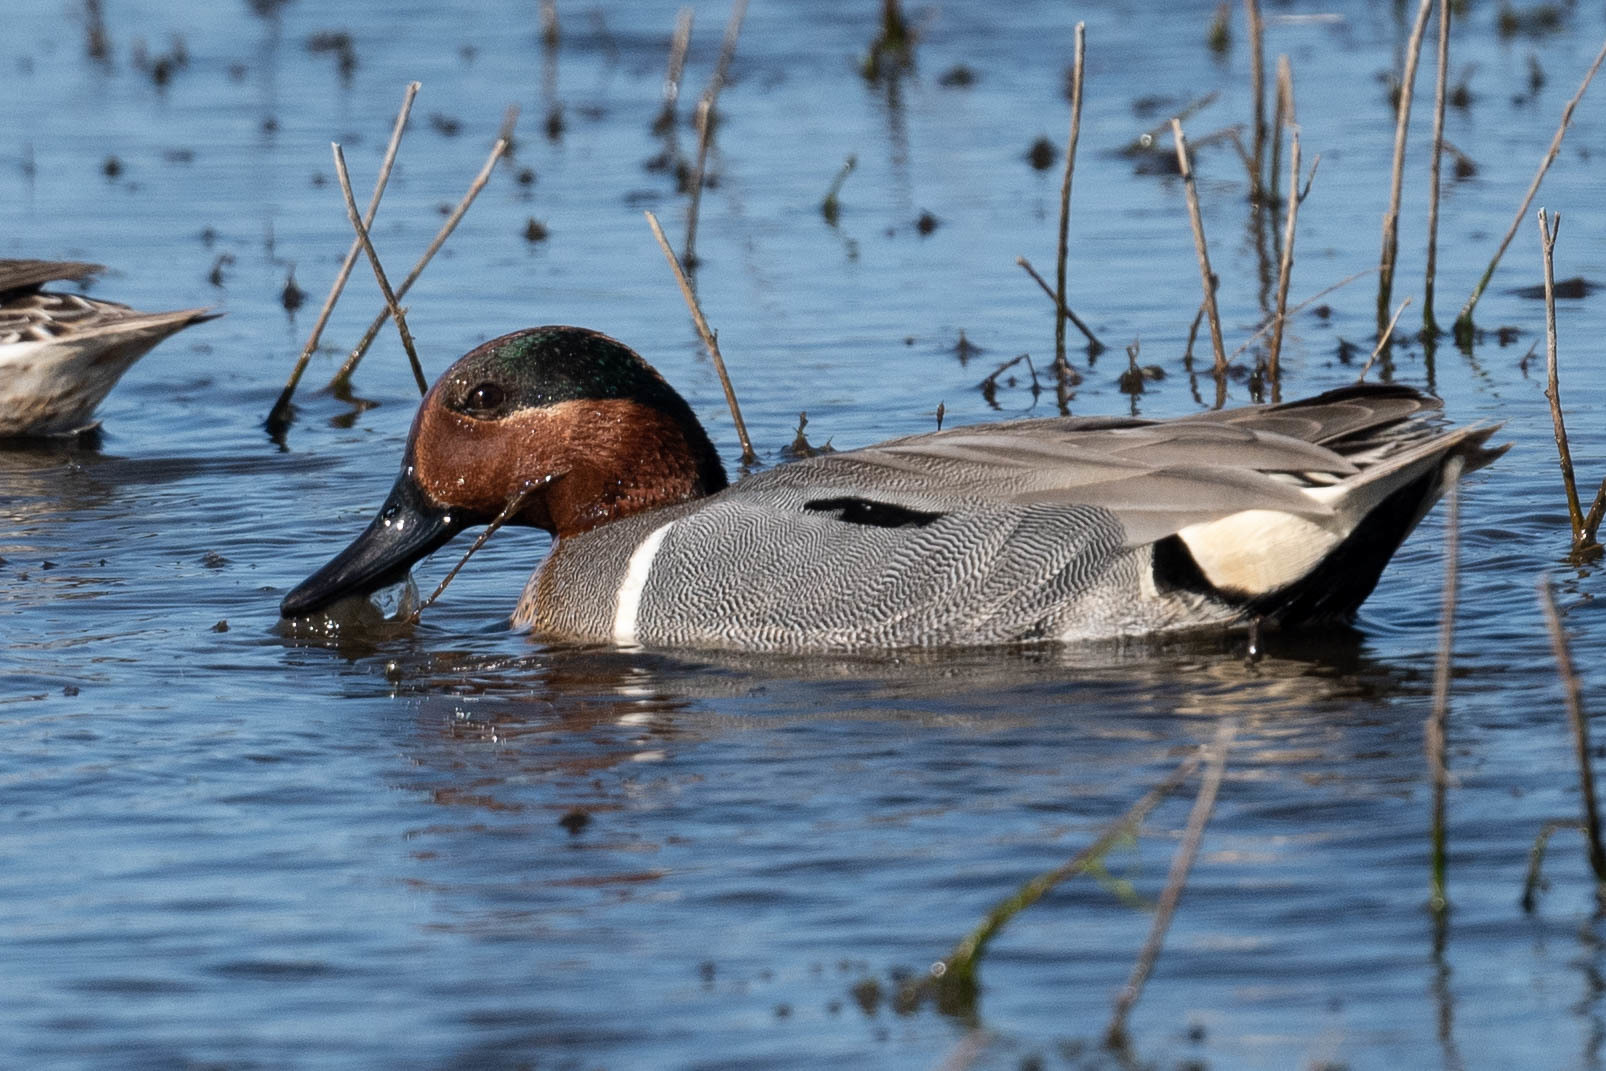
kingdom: Animalia
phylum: Chordata
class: Aves
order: Anseriformes
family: Anatidae
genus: Anas
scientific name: Anas crecca
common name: Eurasian teal
